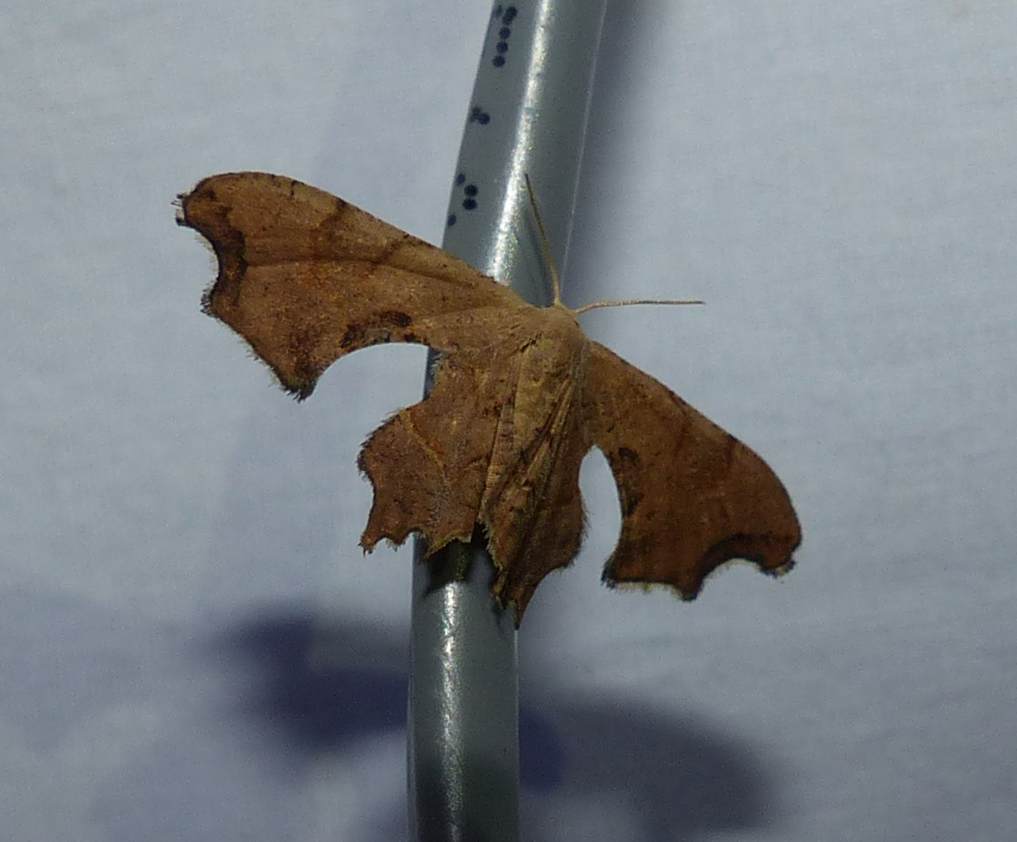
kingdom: Animalia
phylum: Arthropoda
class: Insecta
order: Lepidoptera
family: Uraniidae
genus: Epiplema
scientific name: Epiplema Calledapteryx dryopterata
